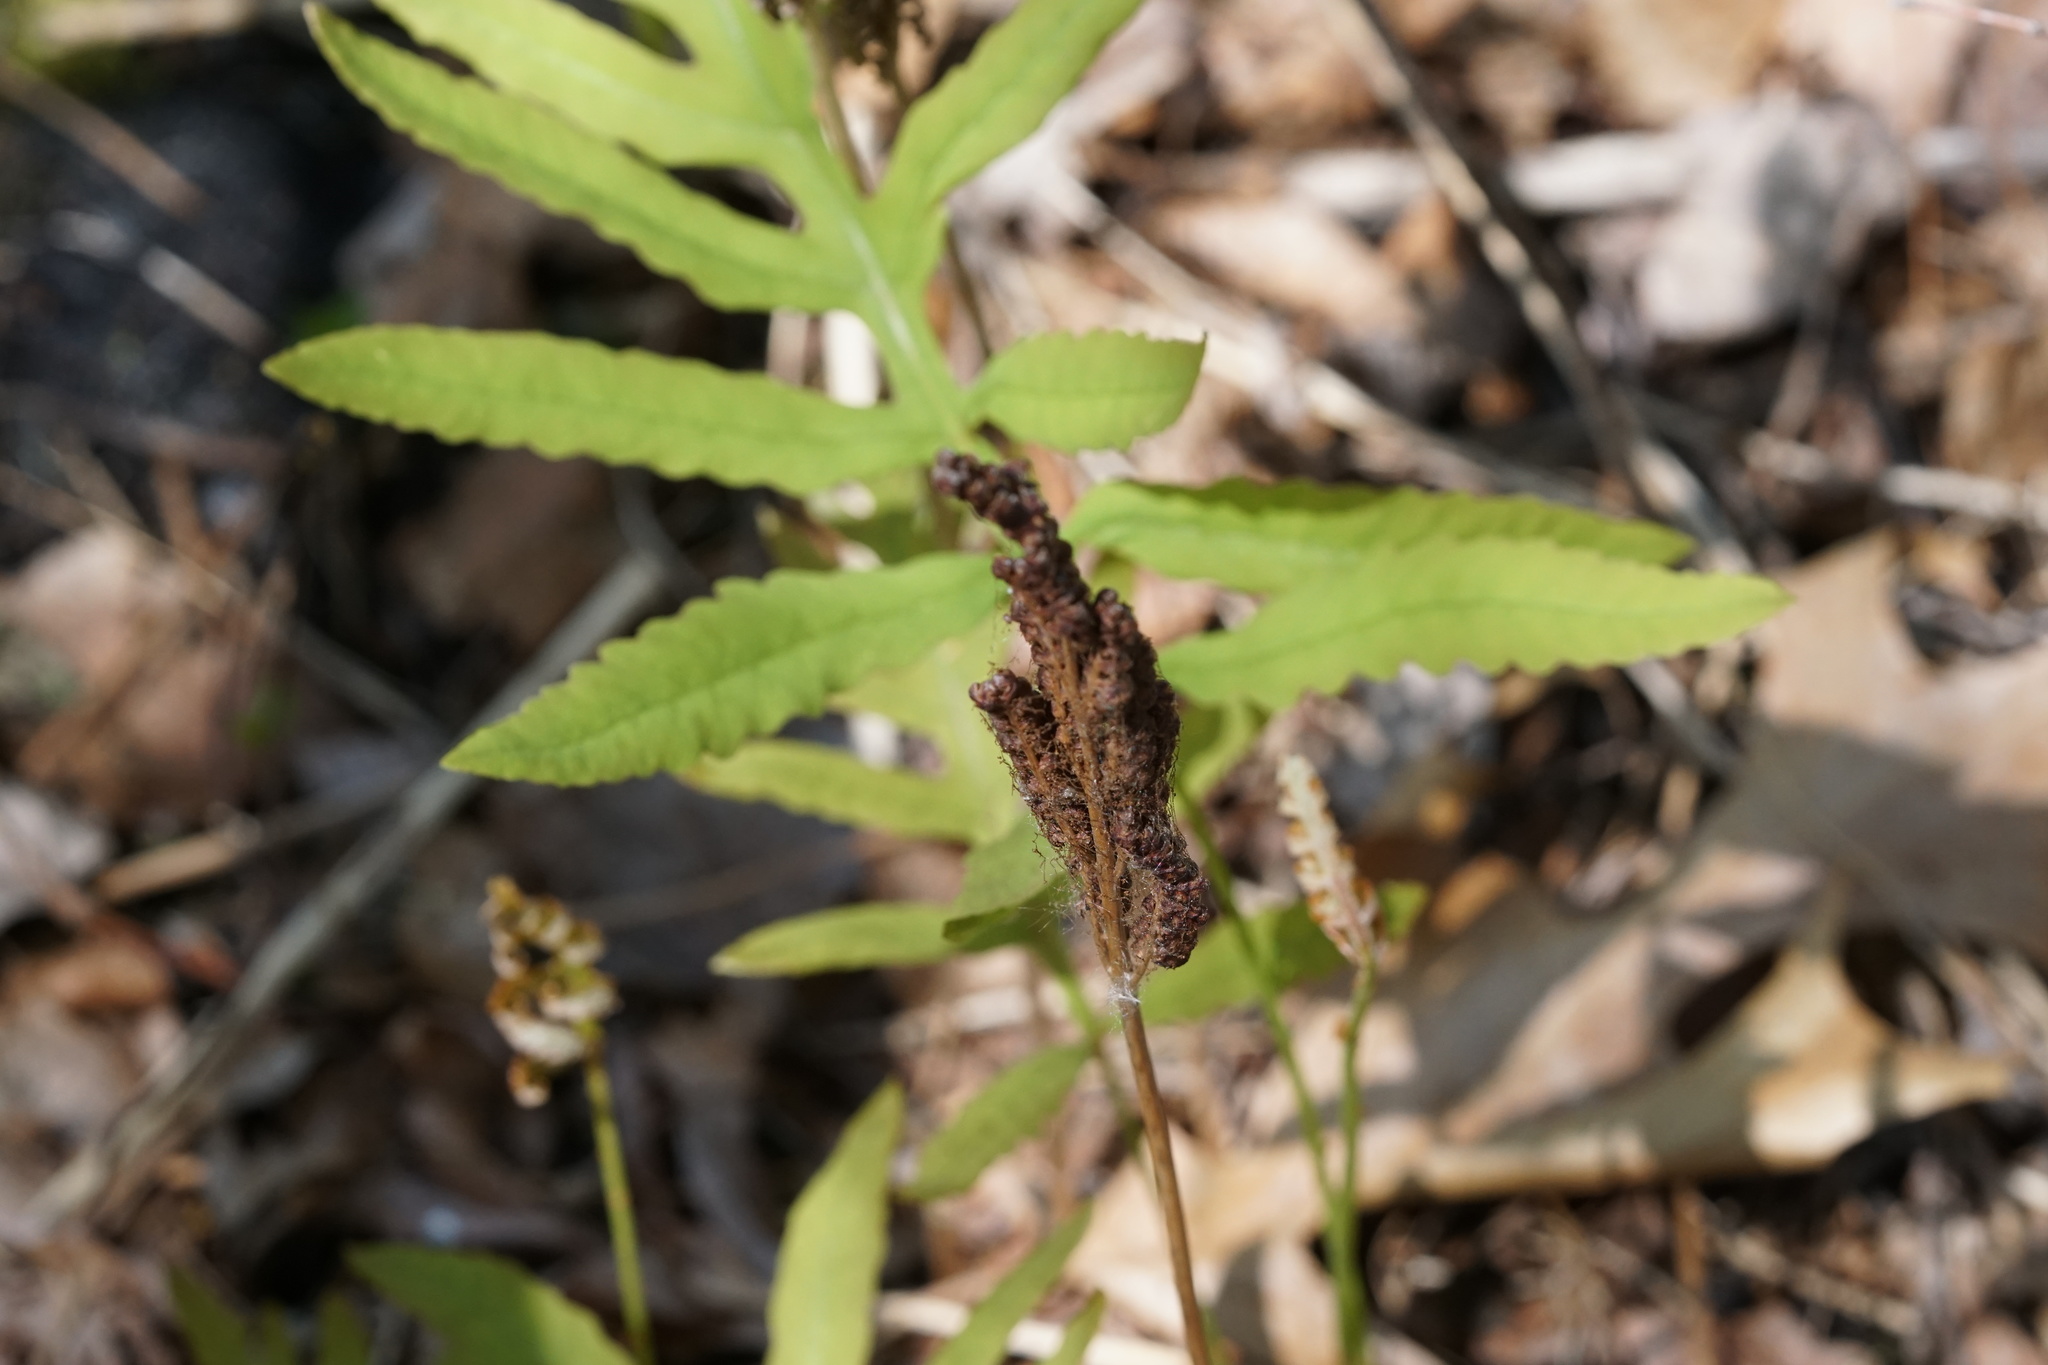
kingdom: Plantae
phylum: Tracheophyta
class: Polypodiopsida
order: Polypodiales
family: Onocleaceae
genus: Onoclea
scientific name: Onoclea sensibilis
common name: Sensitive fern
